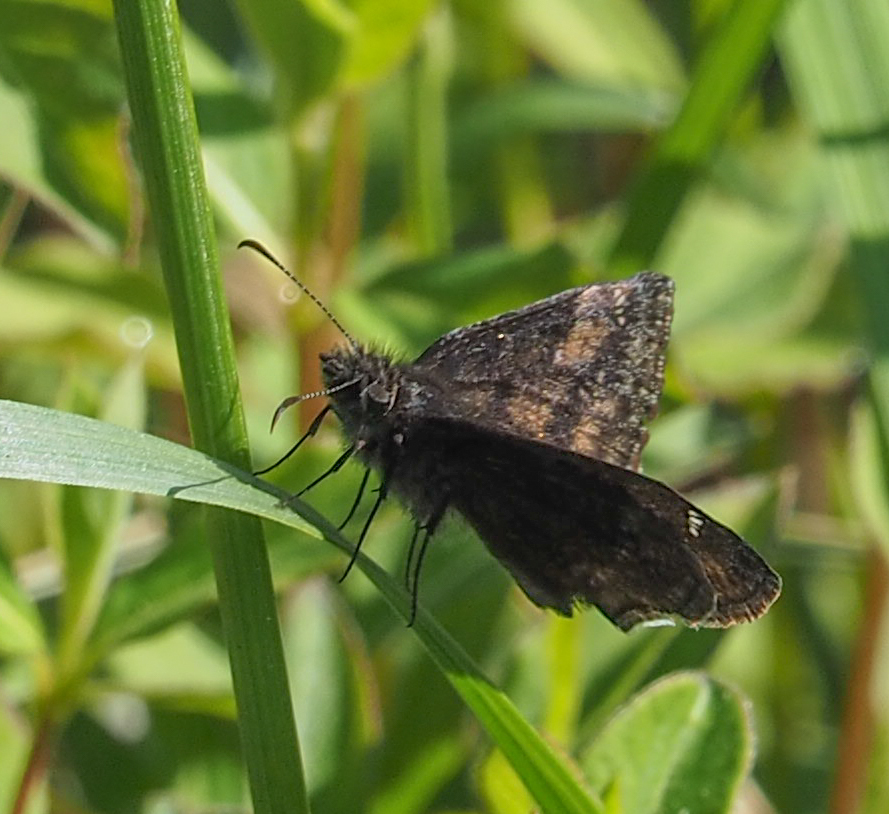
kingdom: Animalia
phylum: Arthropoda
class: Insecta
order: Lepidoptera
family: Hesperiidae
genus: Erynnis
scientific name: Erynnis baptisiae
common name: Wild indigo duskywing
